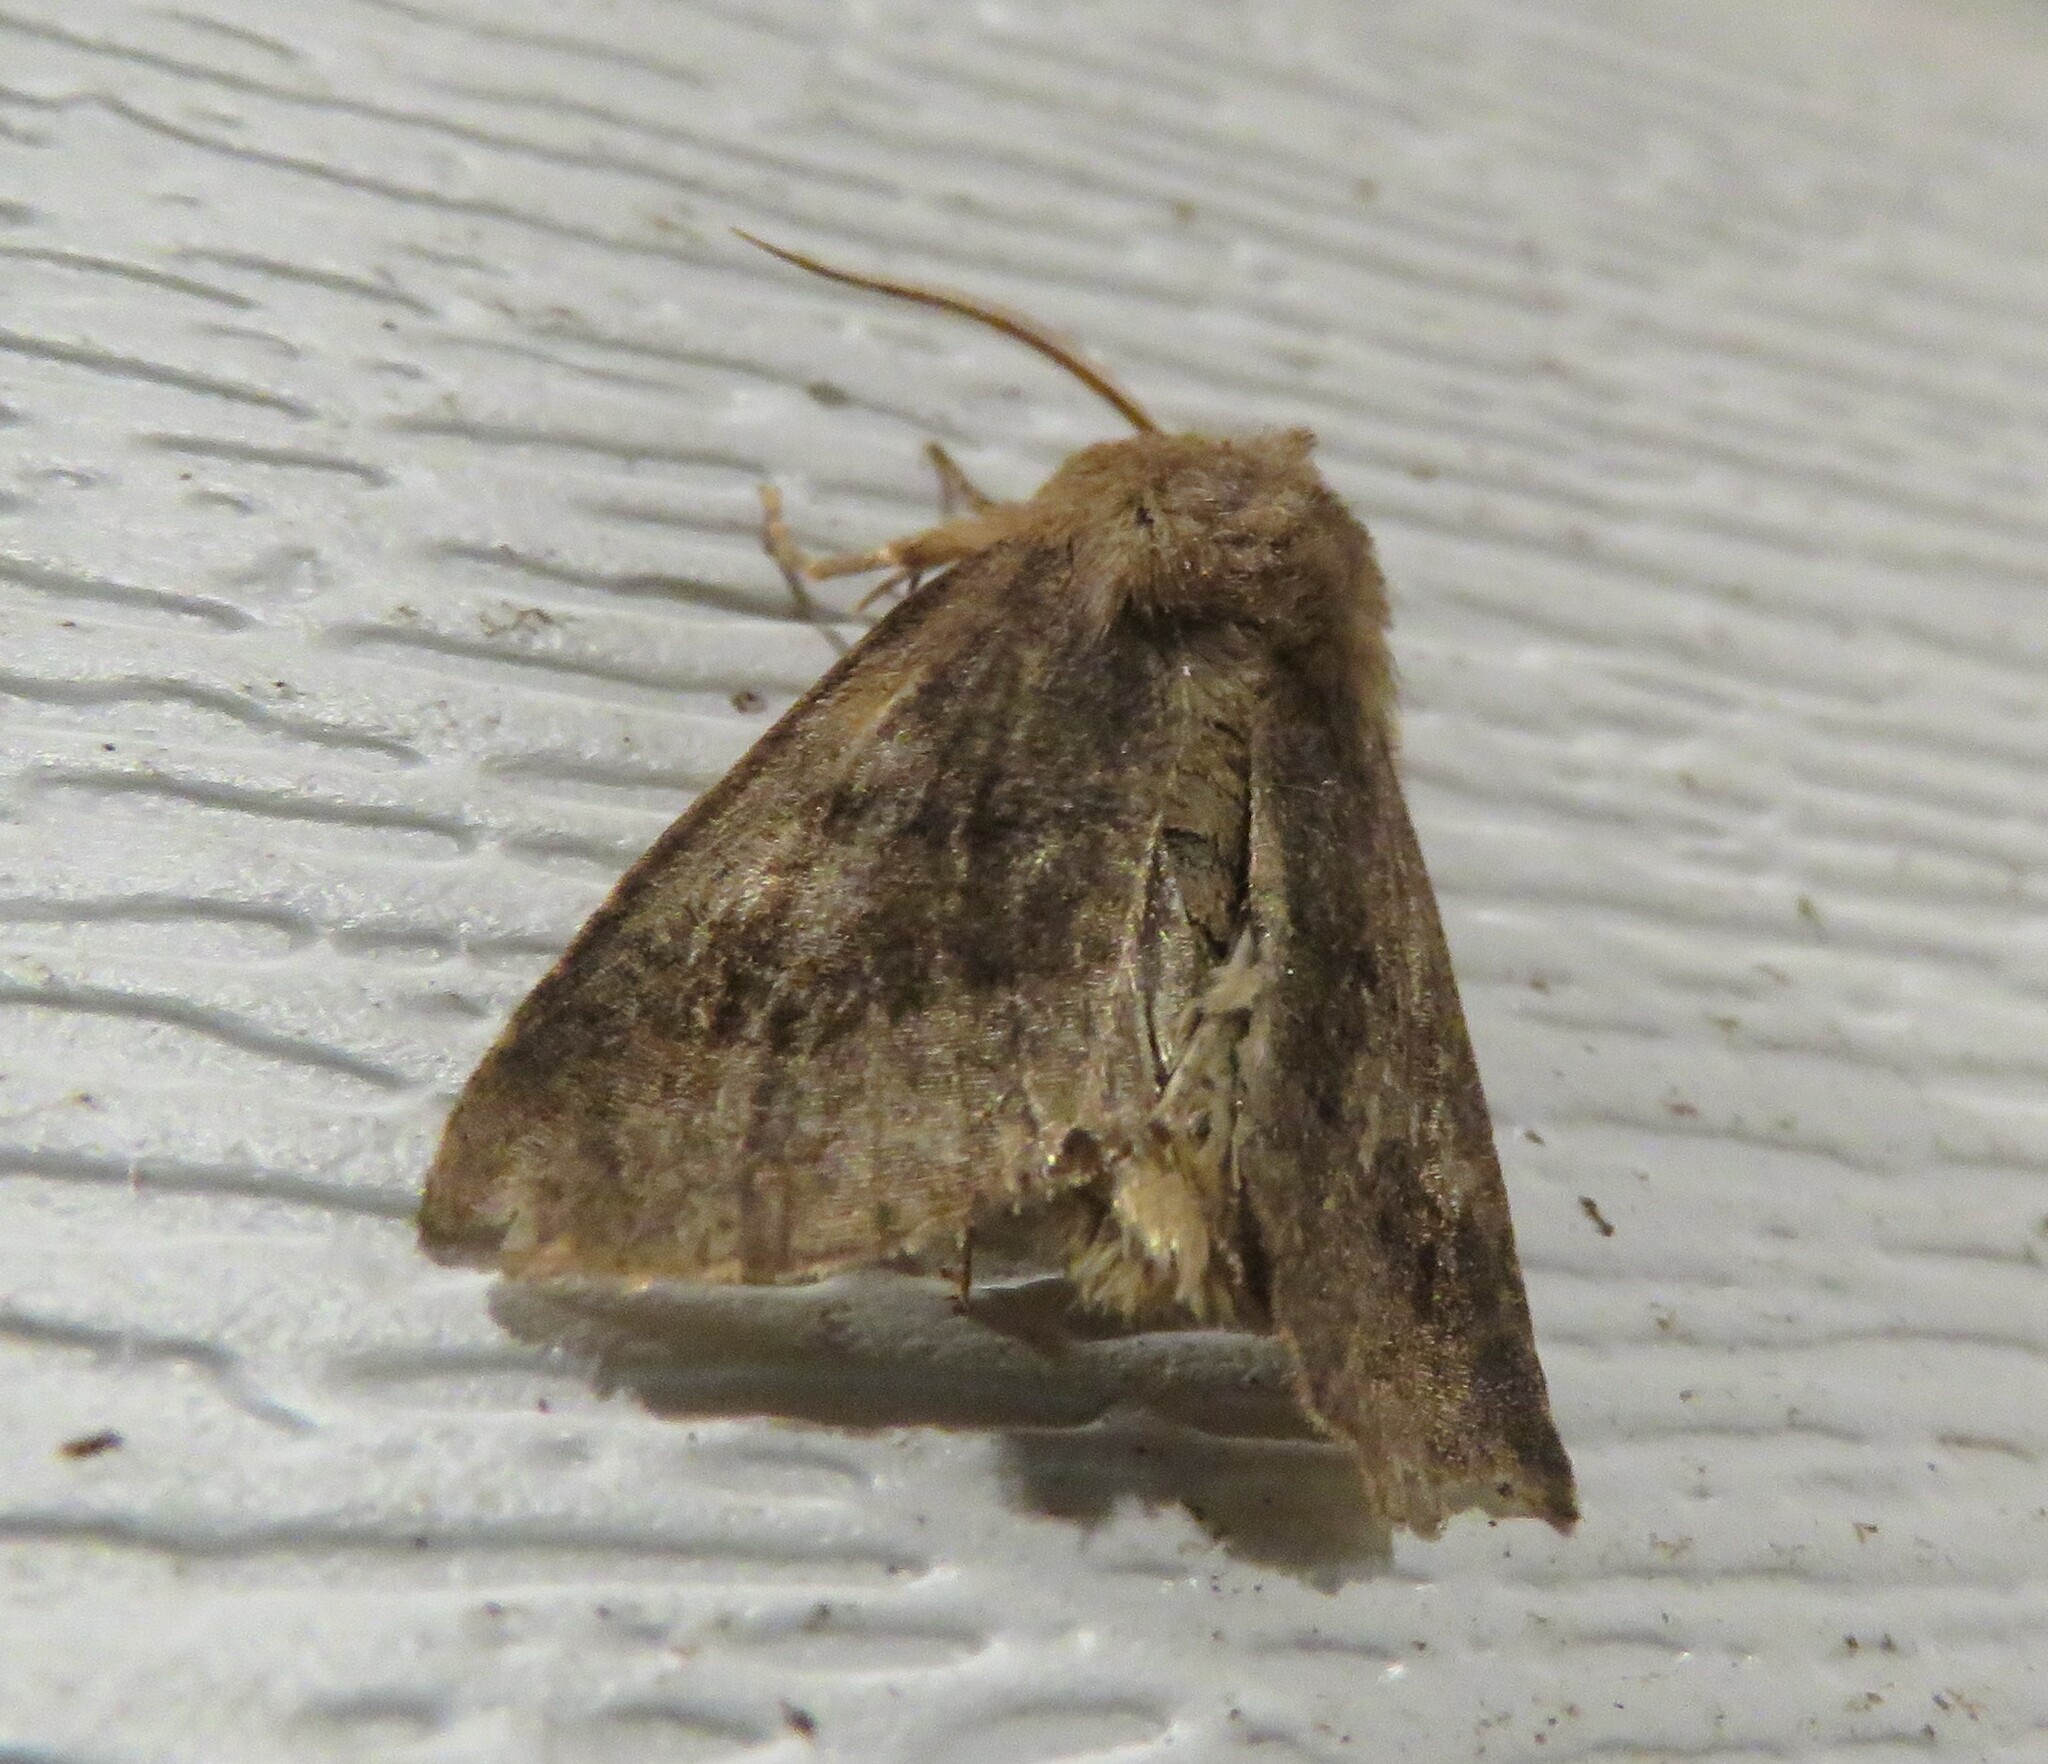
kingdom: Animalia
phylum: Arthropoda
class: Insecta
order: Lepidoptera
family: Noctuidae
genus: Nephelodes
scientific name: Nephelodes minians
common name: Bronzed cutworm
